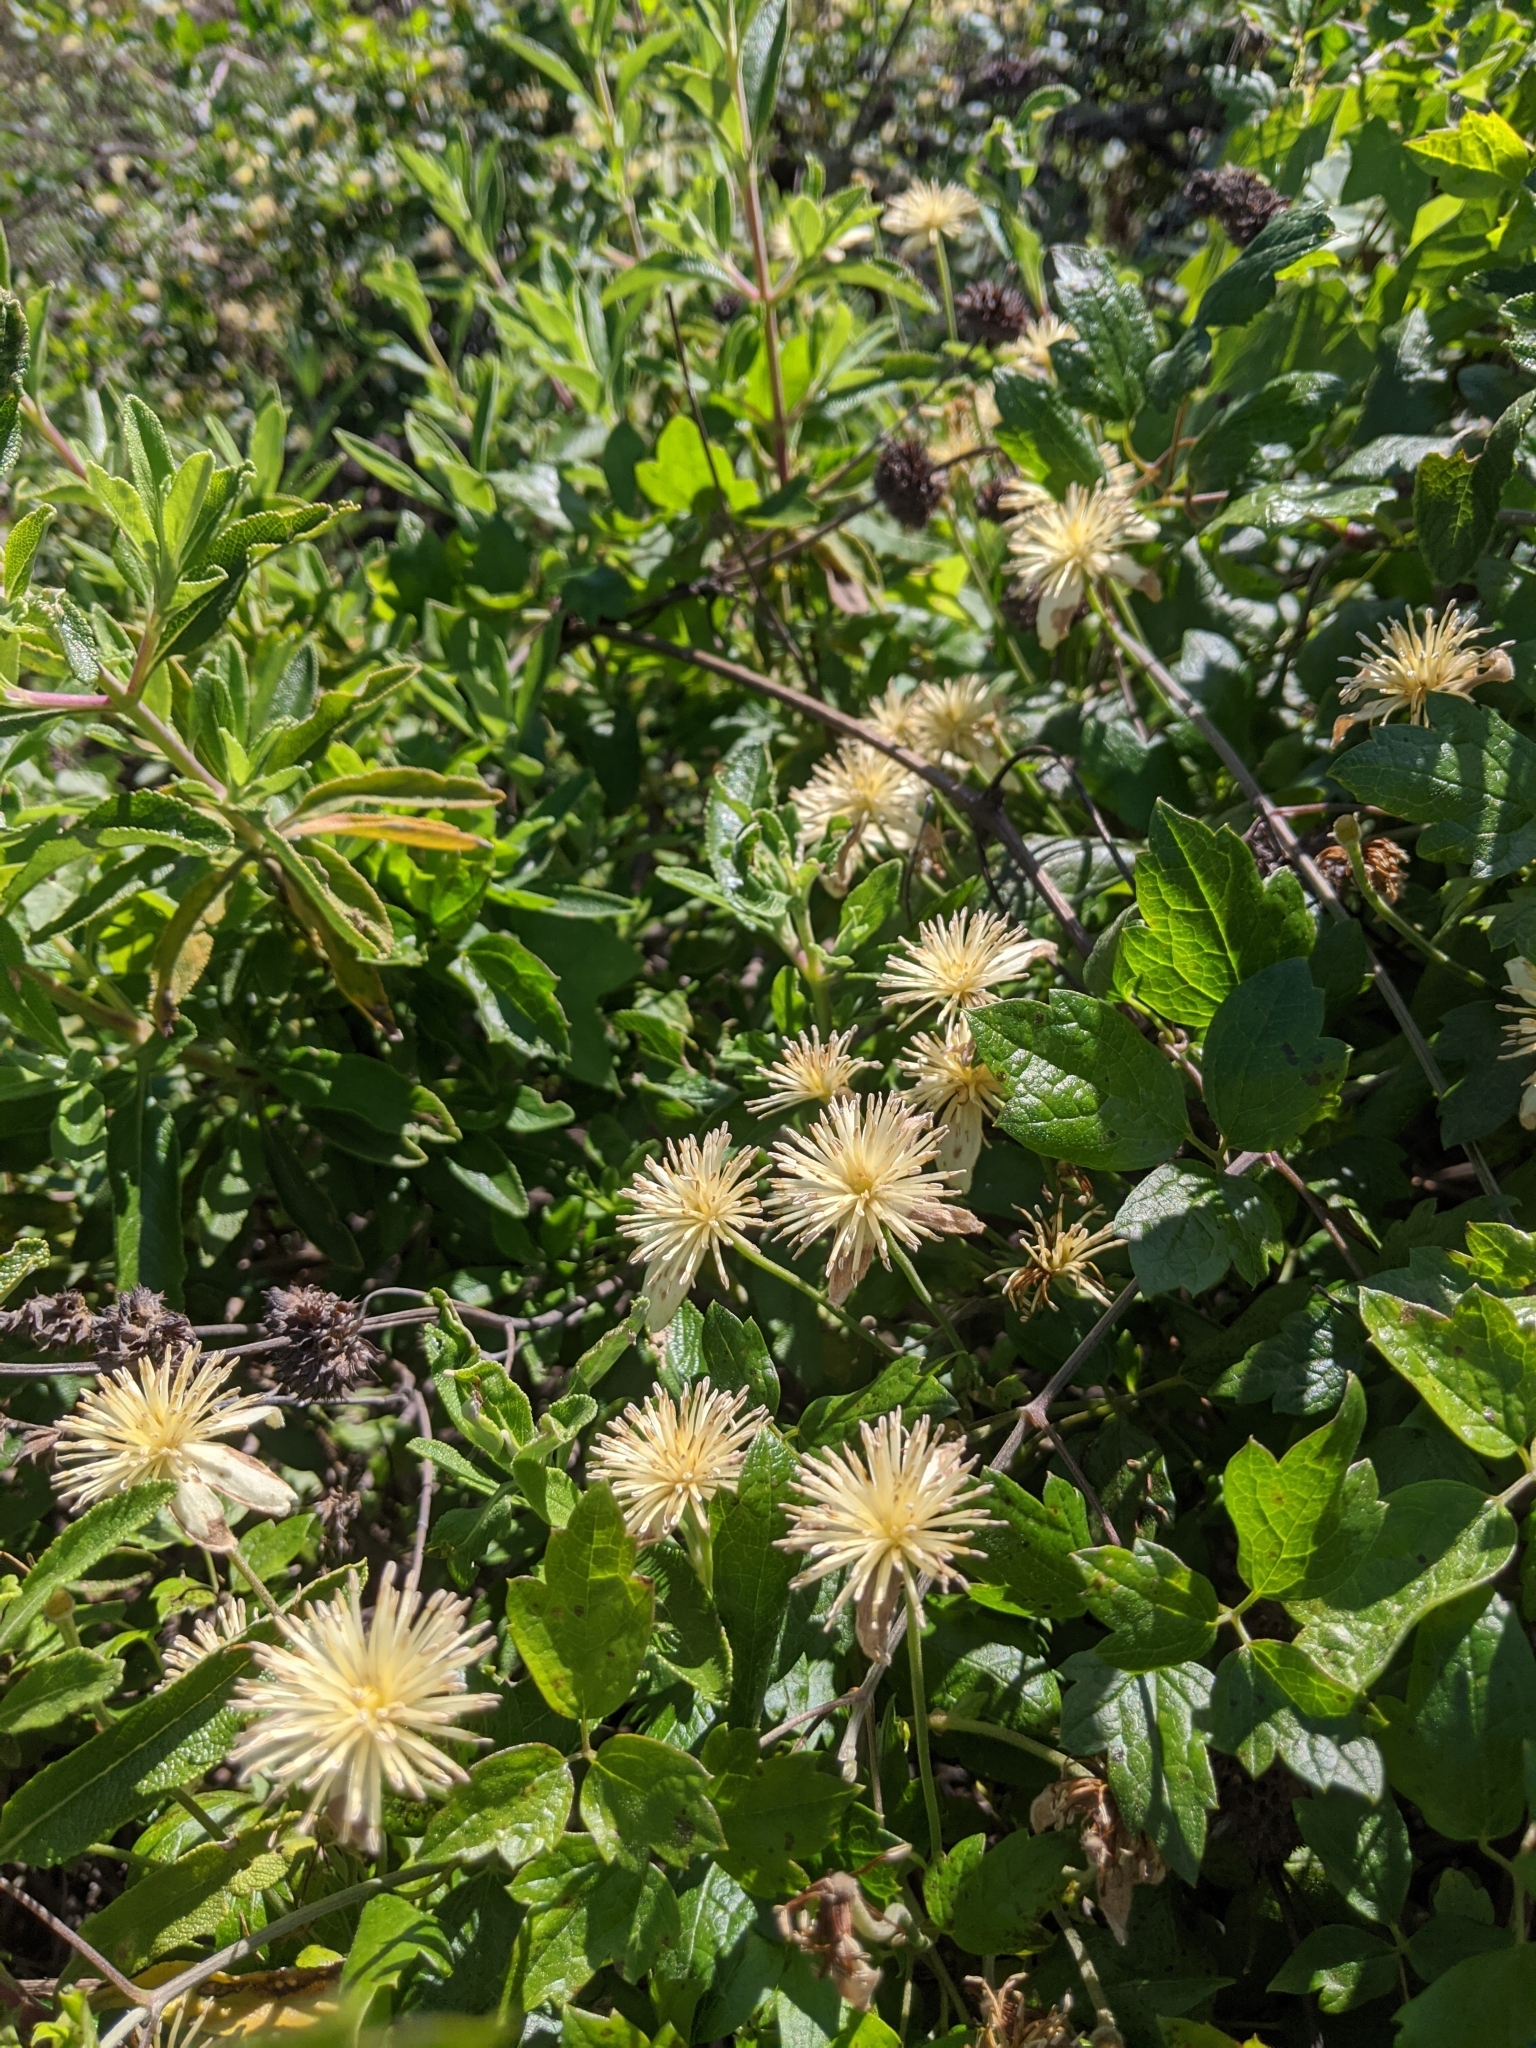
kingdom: Plantae
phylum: Tracheophyta
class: Magnoliopsida
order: Ranunculales
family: Ranunculaceae
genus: Clematis
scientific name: Clematis lasiantha
